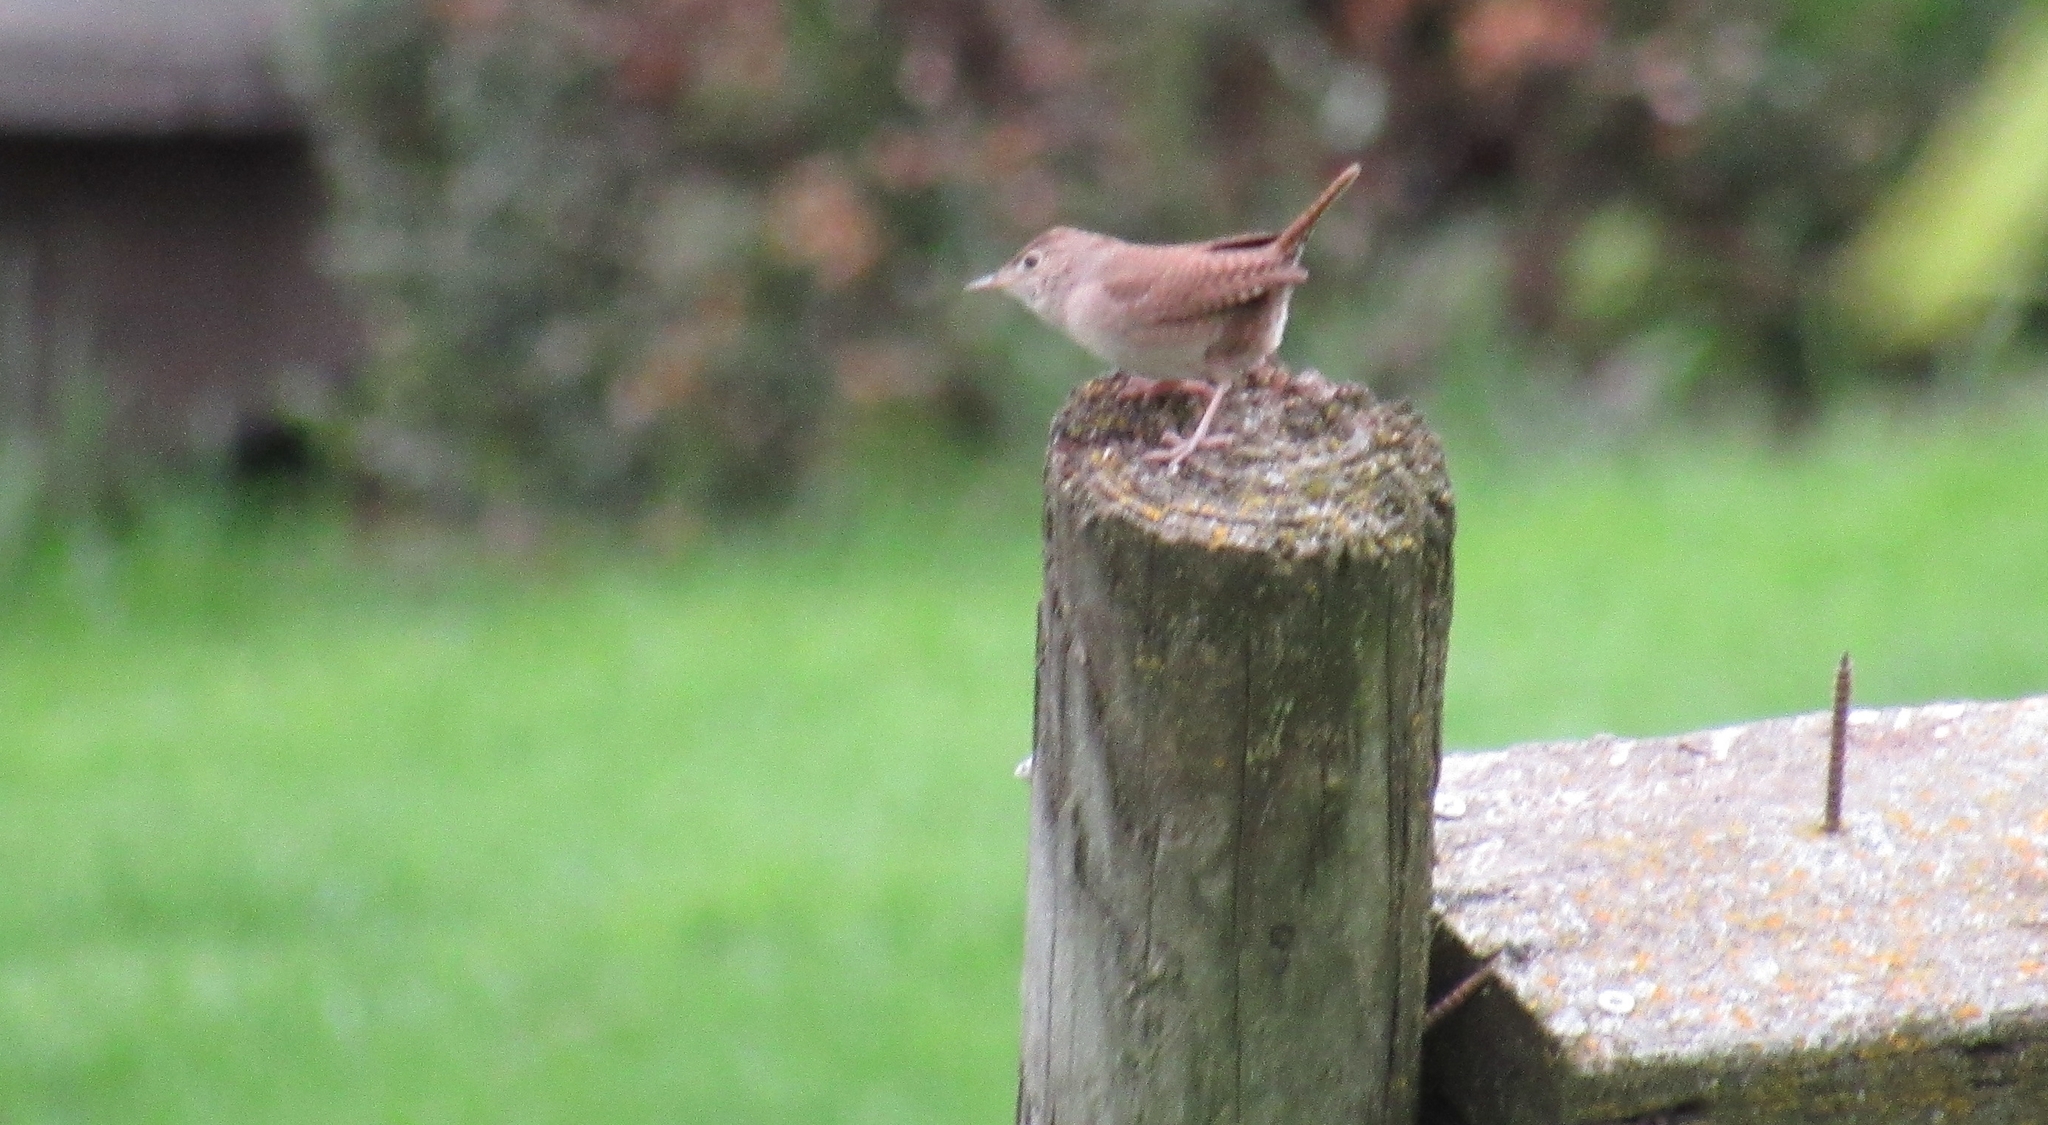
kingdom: Animalia
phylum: Chordata
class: Aves
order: Passeriformes
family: Troglodytidae
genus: Troglodytes
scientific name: Troglodytes aedon
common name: House wren
